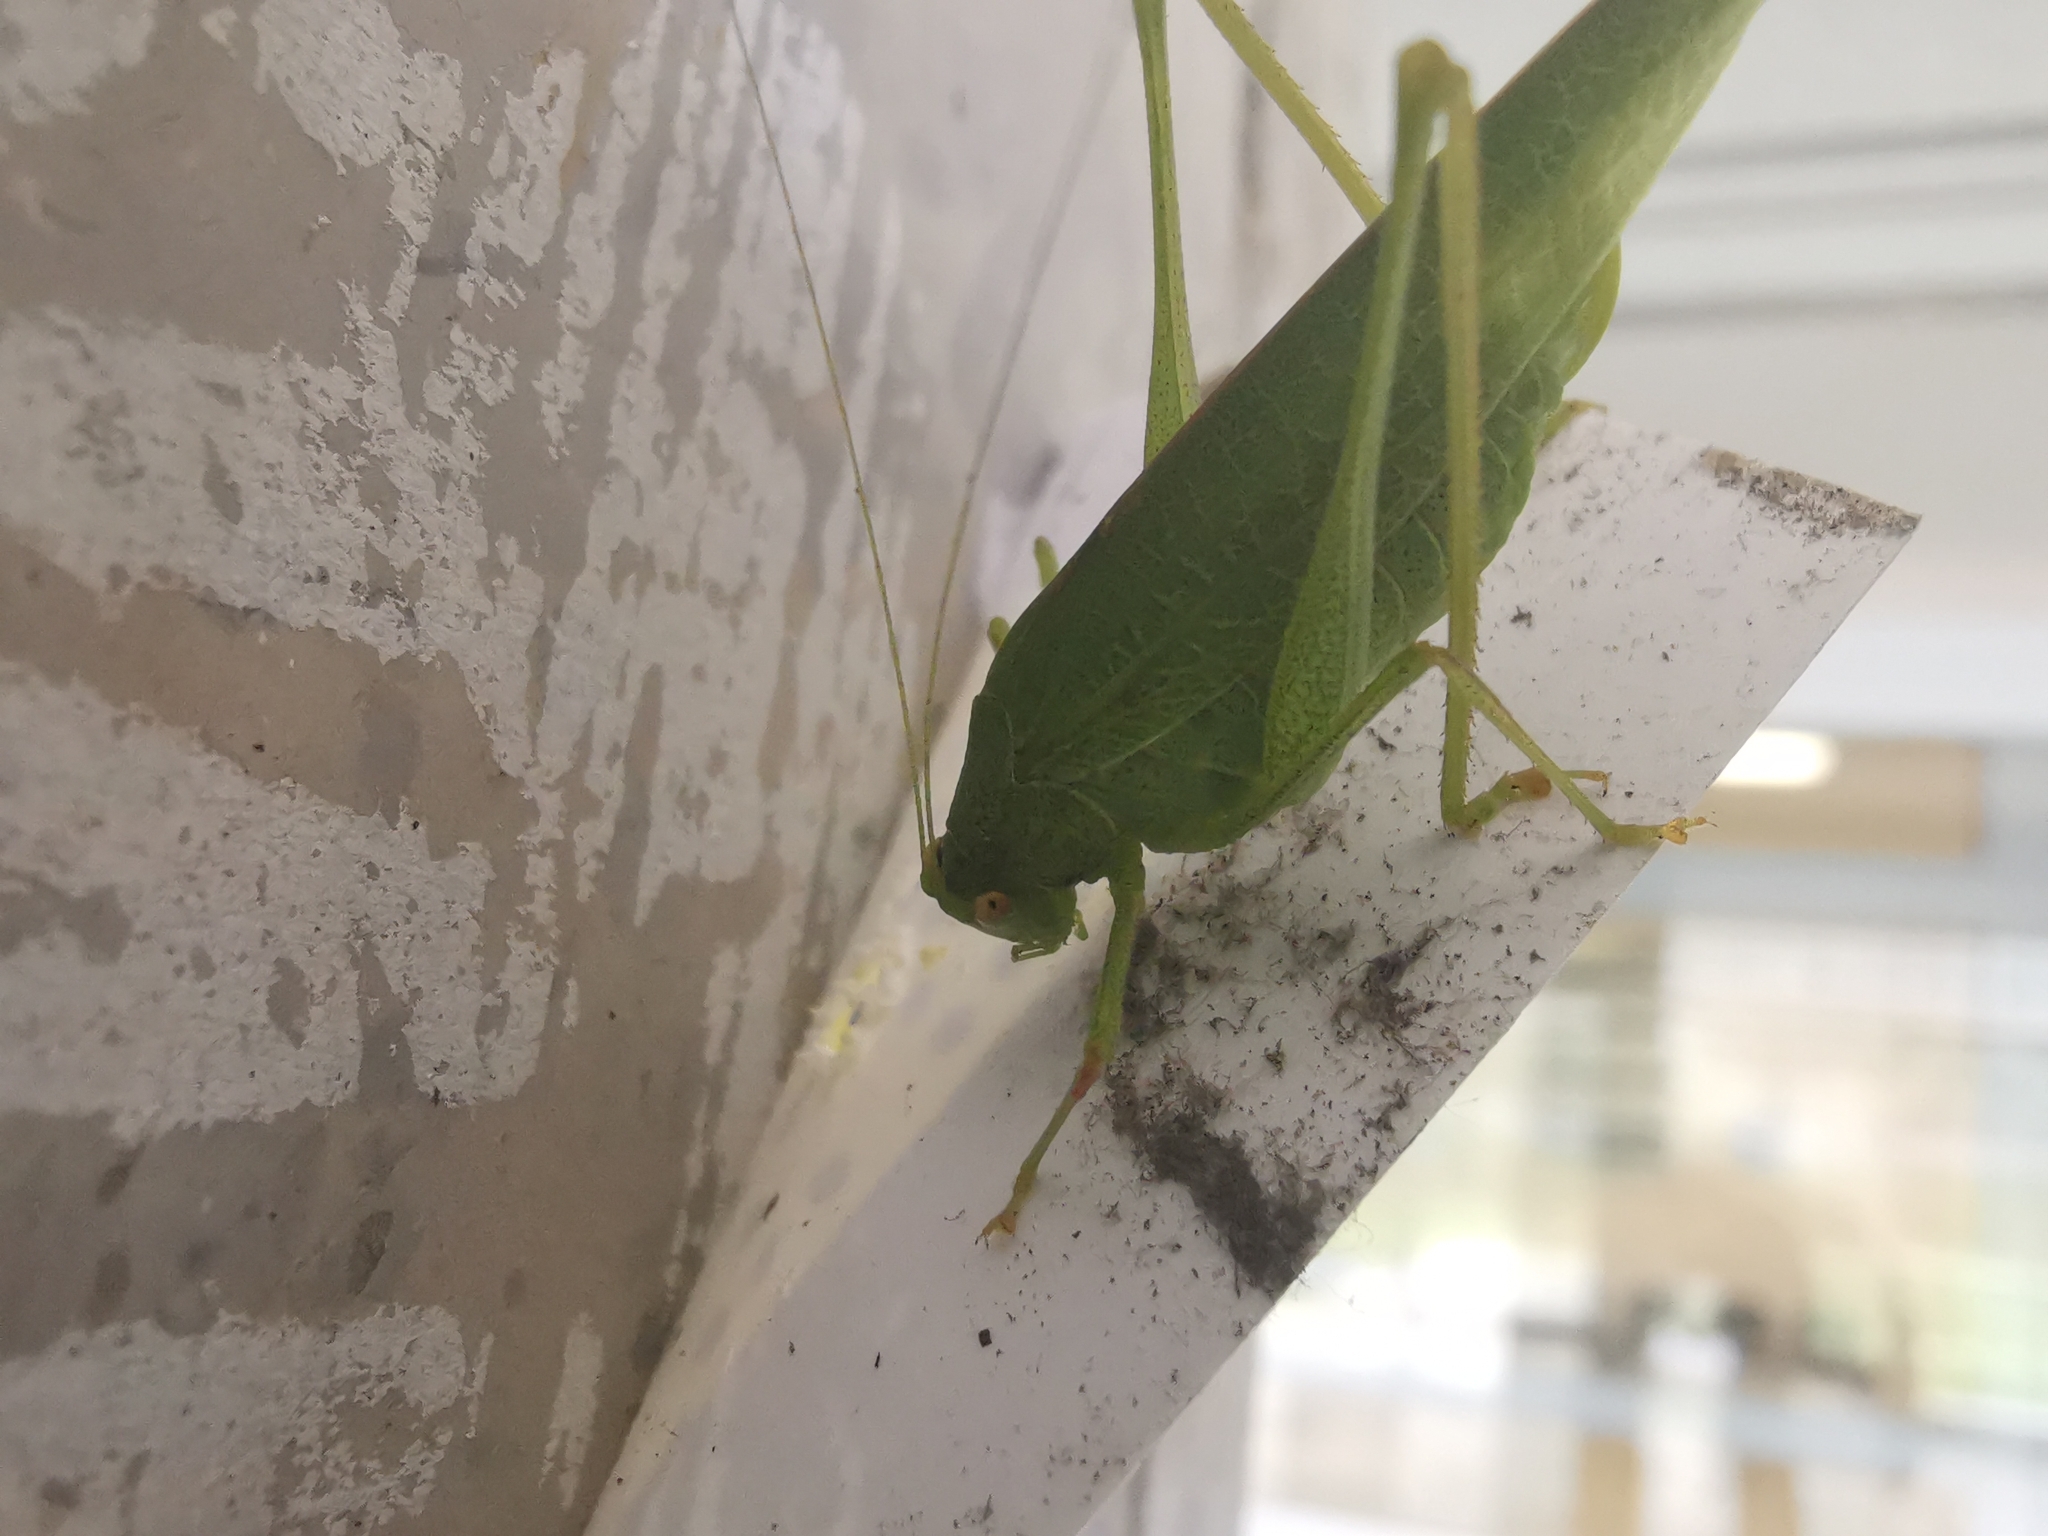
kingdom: Animalia
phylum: Arthropoda
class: Insecta
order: Orthoptera
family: Tettigoniidae
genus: Phaneroptera
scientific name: Phaneroptera nana
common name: Southern sickle bush-cricket
